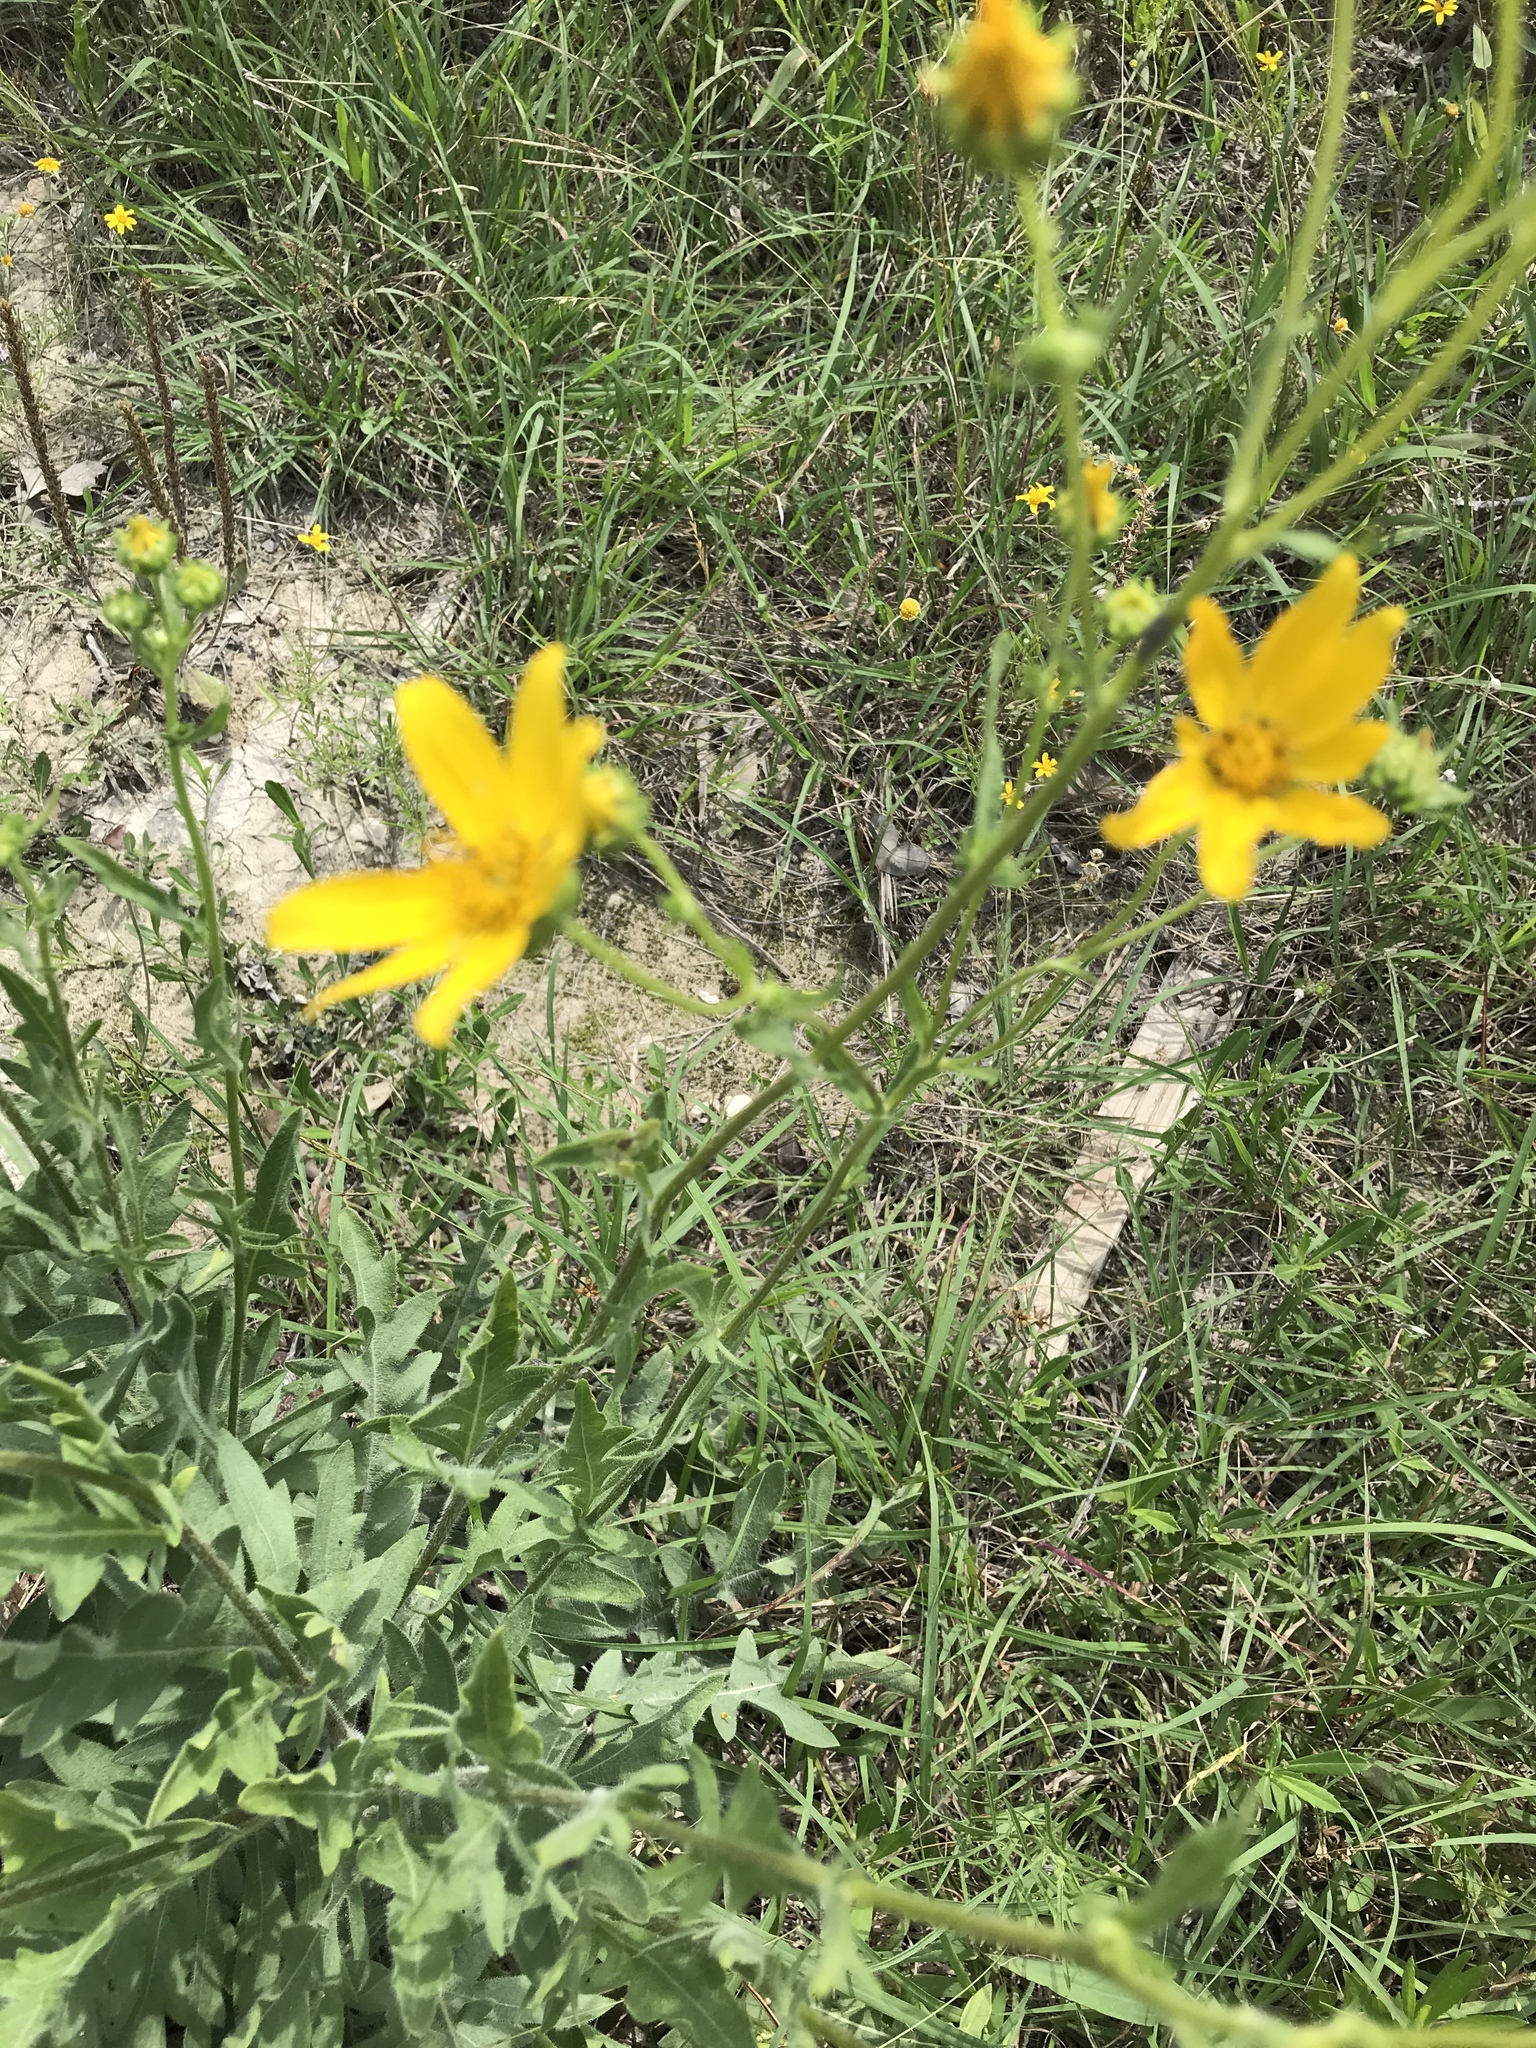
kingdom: Plantae
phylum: Tracheophyta
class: Magnoliopsida
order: Asterales
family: Asteraceae
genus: Engelmannia
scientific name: Engelmannia peristenia
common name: Engelmann's daisy
